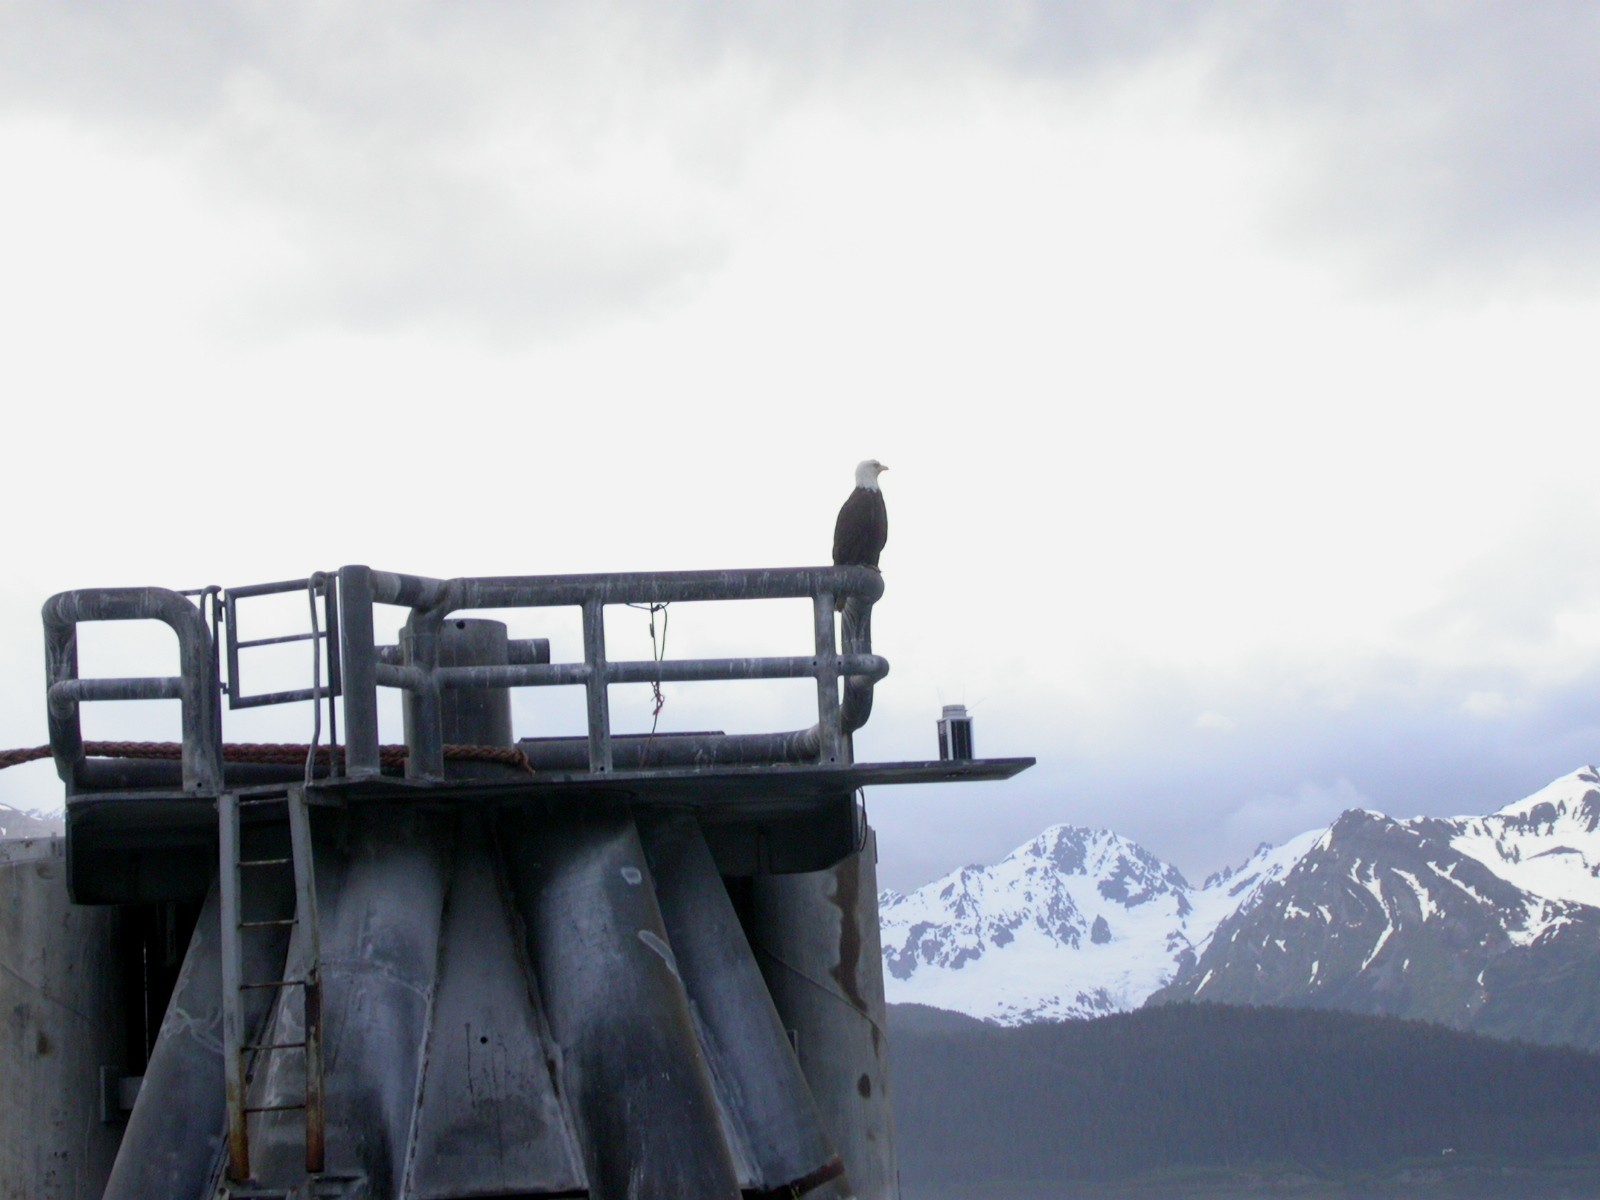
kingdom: Animalia
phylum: Chordata
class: Aves
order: Accipitriformes
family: Accipitridae
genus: Haliaeetus
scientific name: Haliaeetus leucocephalus
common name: Bald eagle
